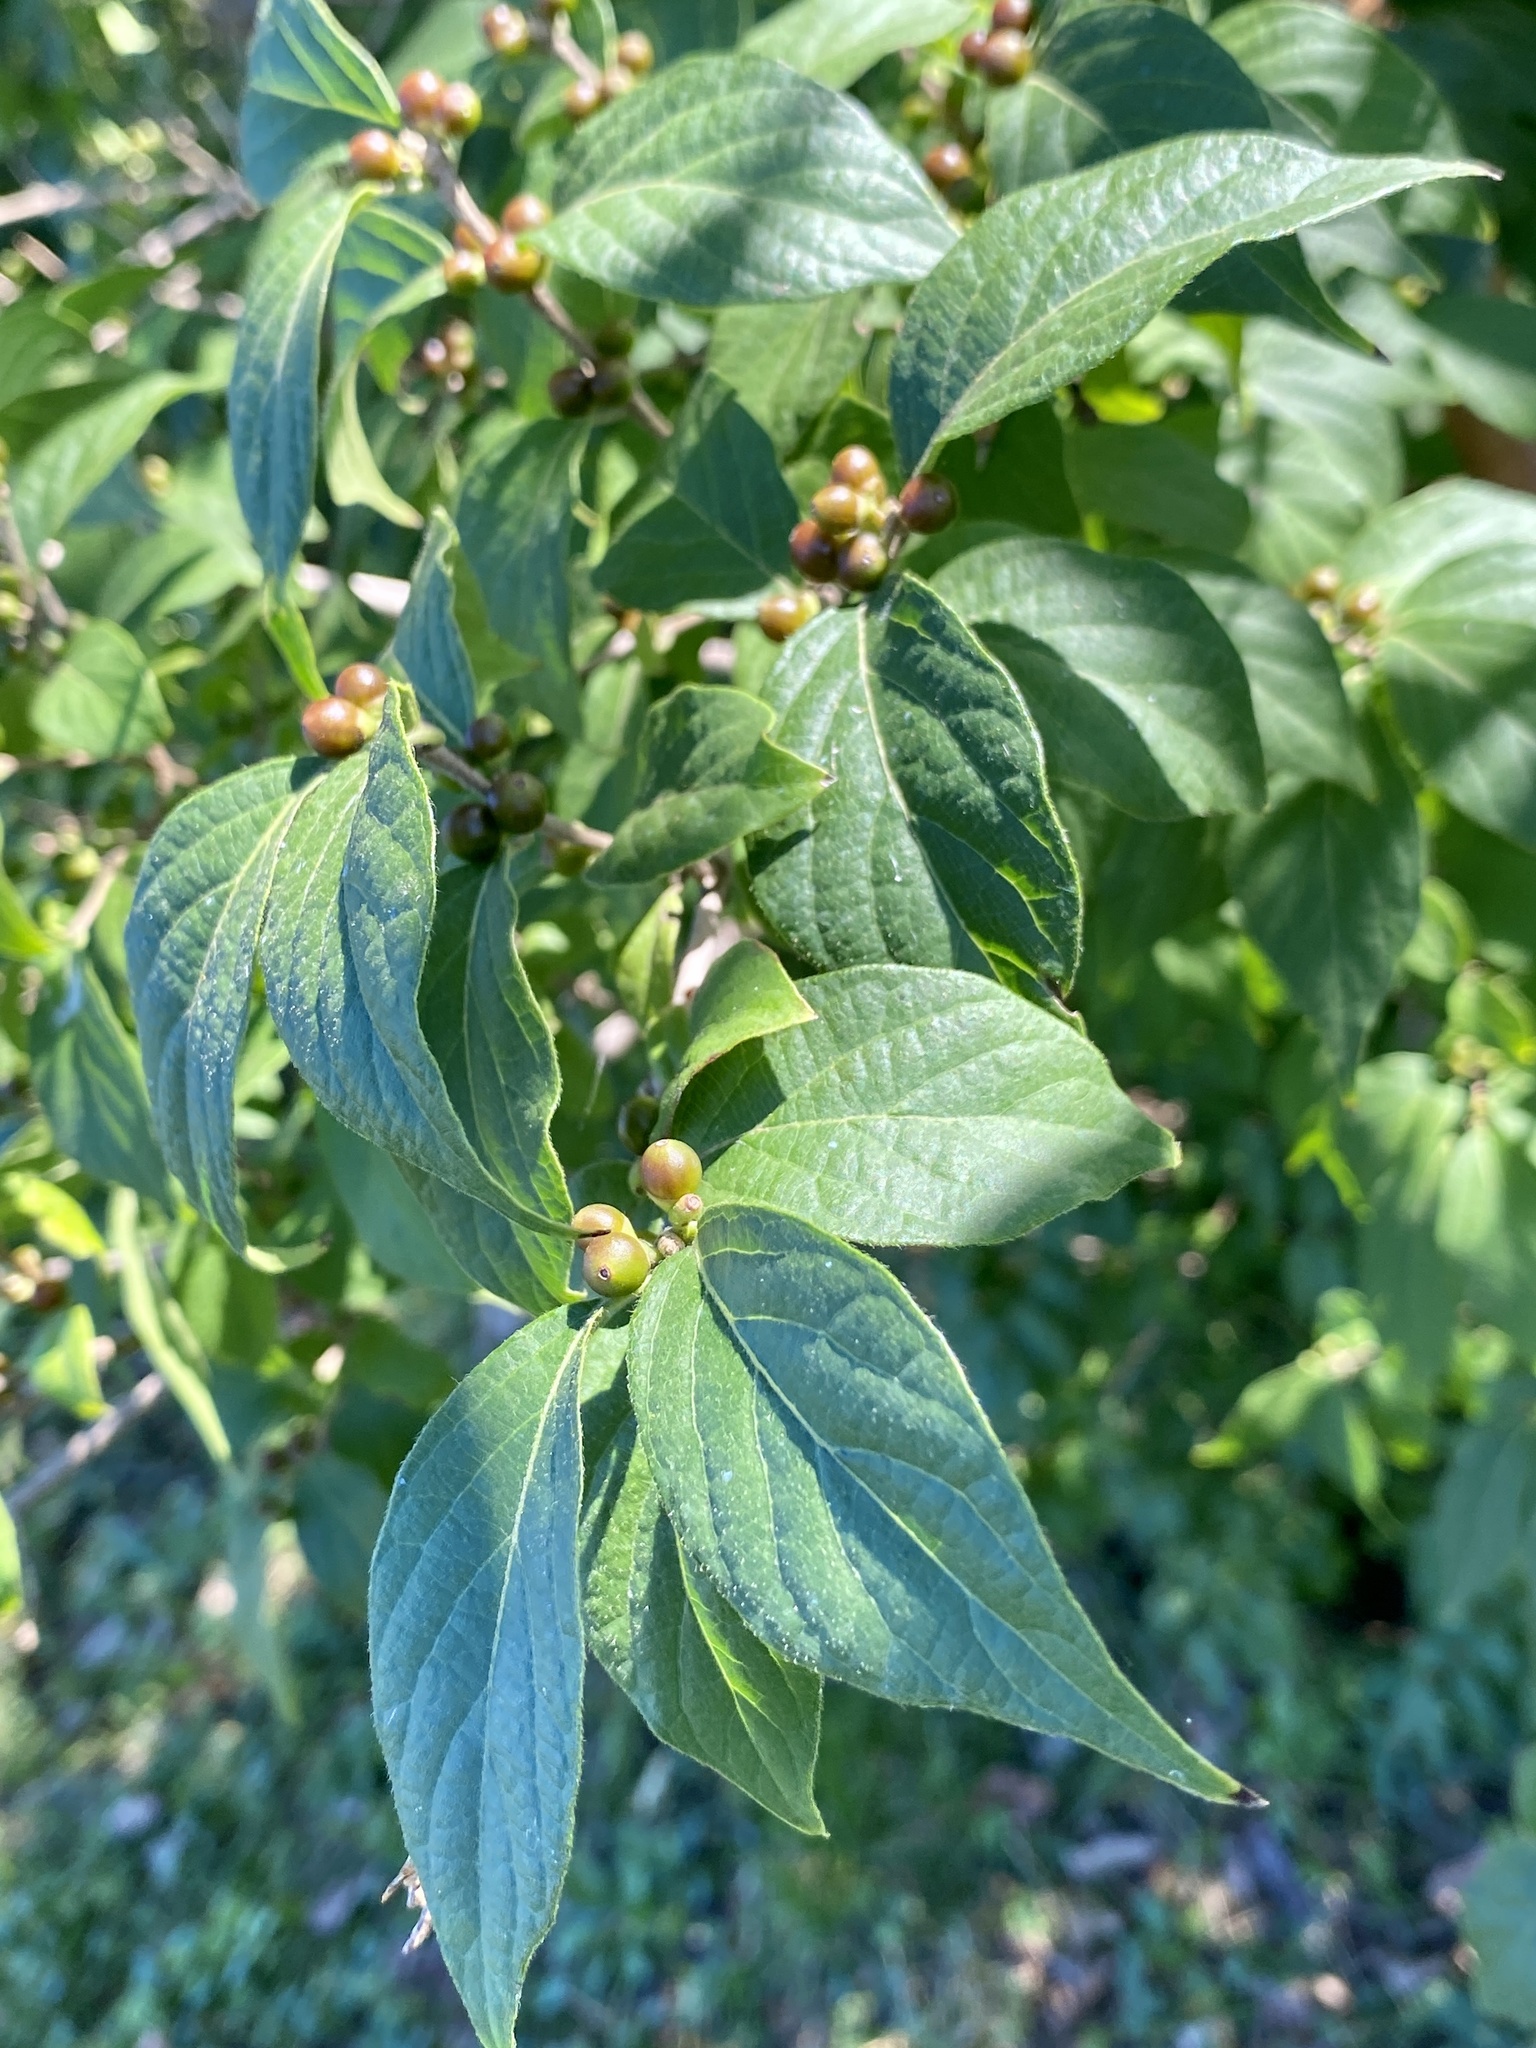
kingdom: Plantae
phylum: Tracheophyta
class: Magnoliopsida
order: Dipsacales
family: Caprifoliaceae
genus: Lonicera
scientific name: Lonicera maackii
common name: Amur honeysuckle
